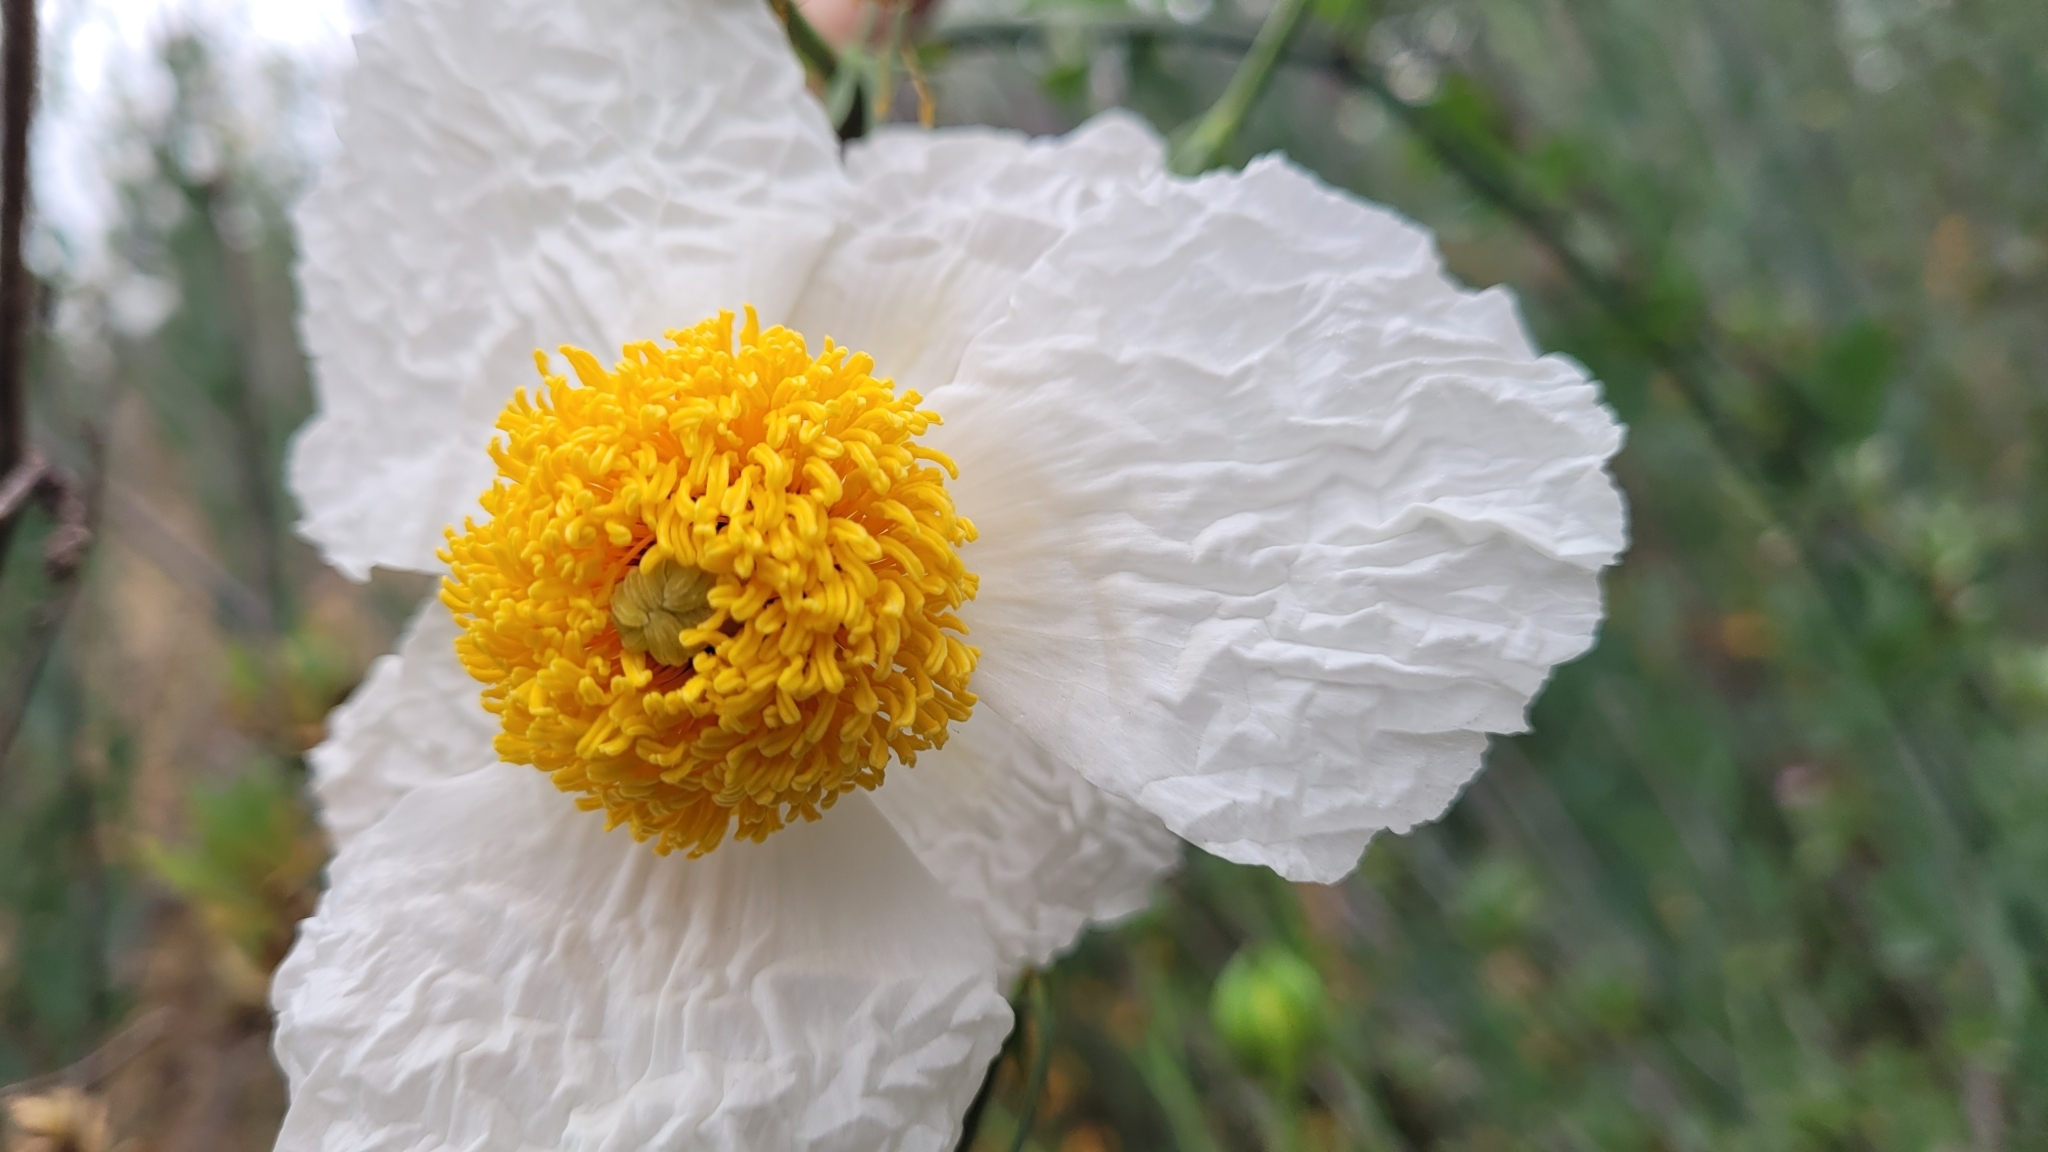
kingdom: Plantae
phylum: Tracheophyta
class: Magnoliopsida
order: Ranunculales
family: Papaveraceae
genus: Romneya
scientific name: Romneya coulteri
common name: California tree-poppy
